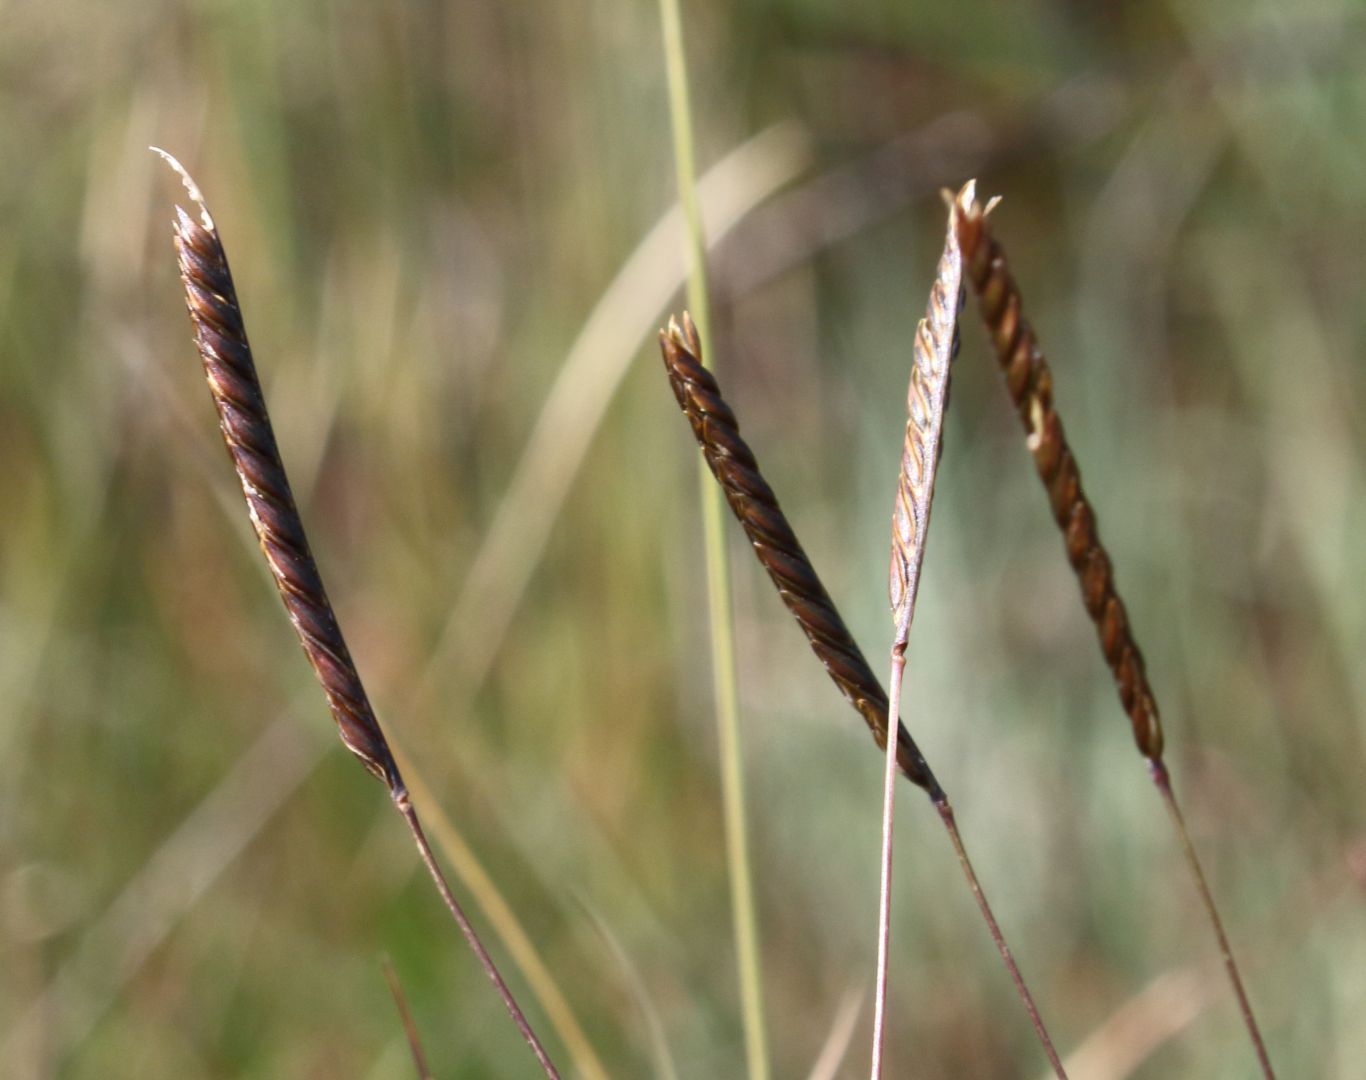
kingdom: Plantae
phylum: Tracheophyta
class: Liliopsida
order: Poales
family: Poaceae
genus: Microchloa
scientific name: Microchloa altera
